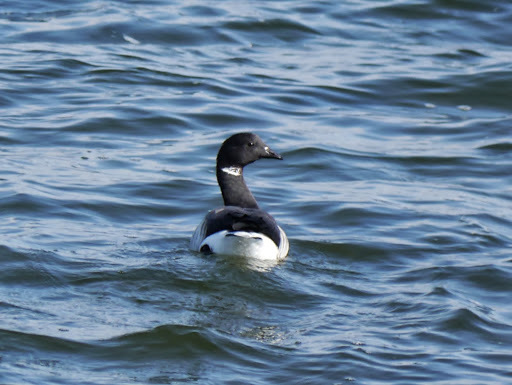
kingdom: Animalia
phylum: Chordata
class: Aves
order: Anseriformes
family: Anatidae
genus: Branta
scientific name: Branta bernicla
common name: Brant goose
